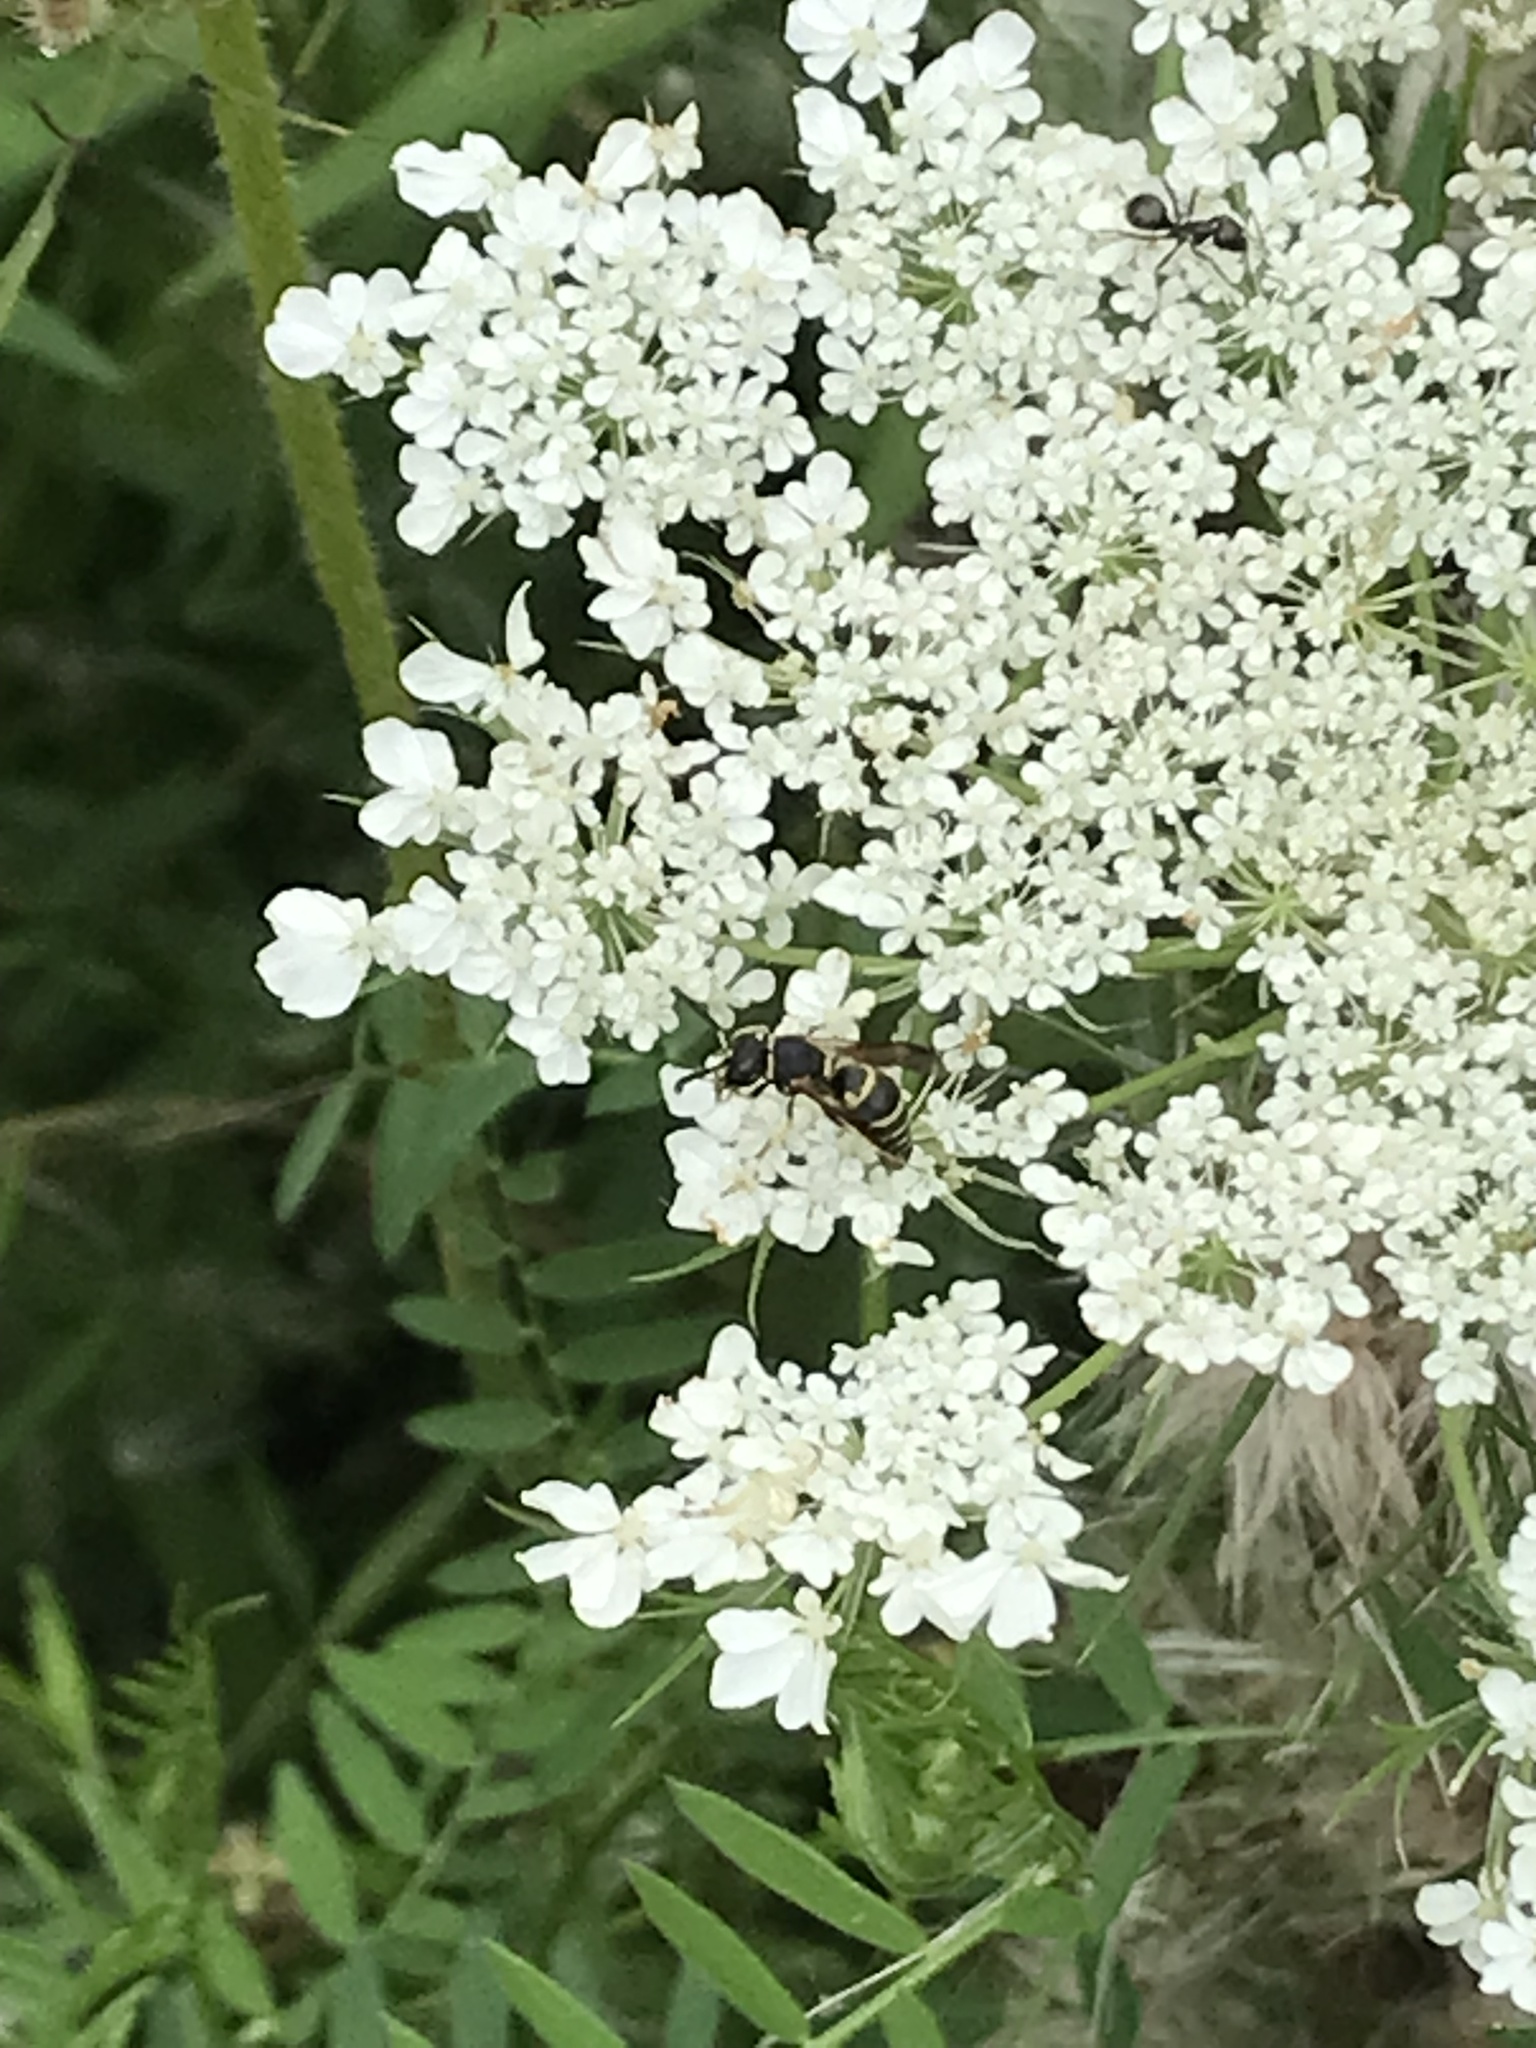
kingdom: Animalia
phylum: Arthropoda
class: Insecta
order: Hymenoptera
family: Eumenidae
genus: Euodynerus
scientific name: Euodynerus
